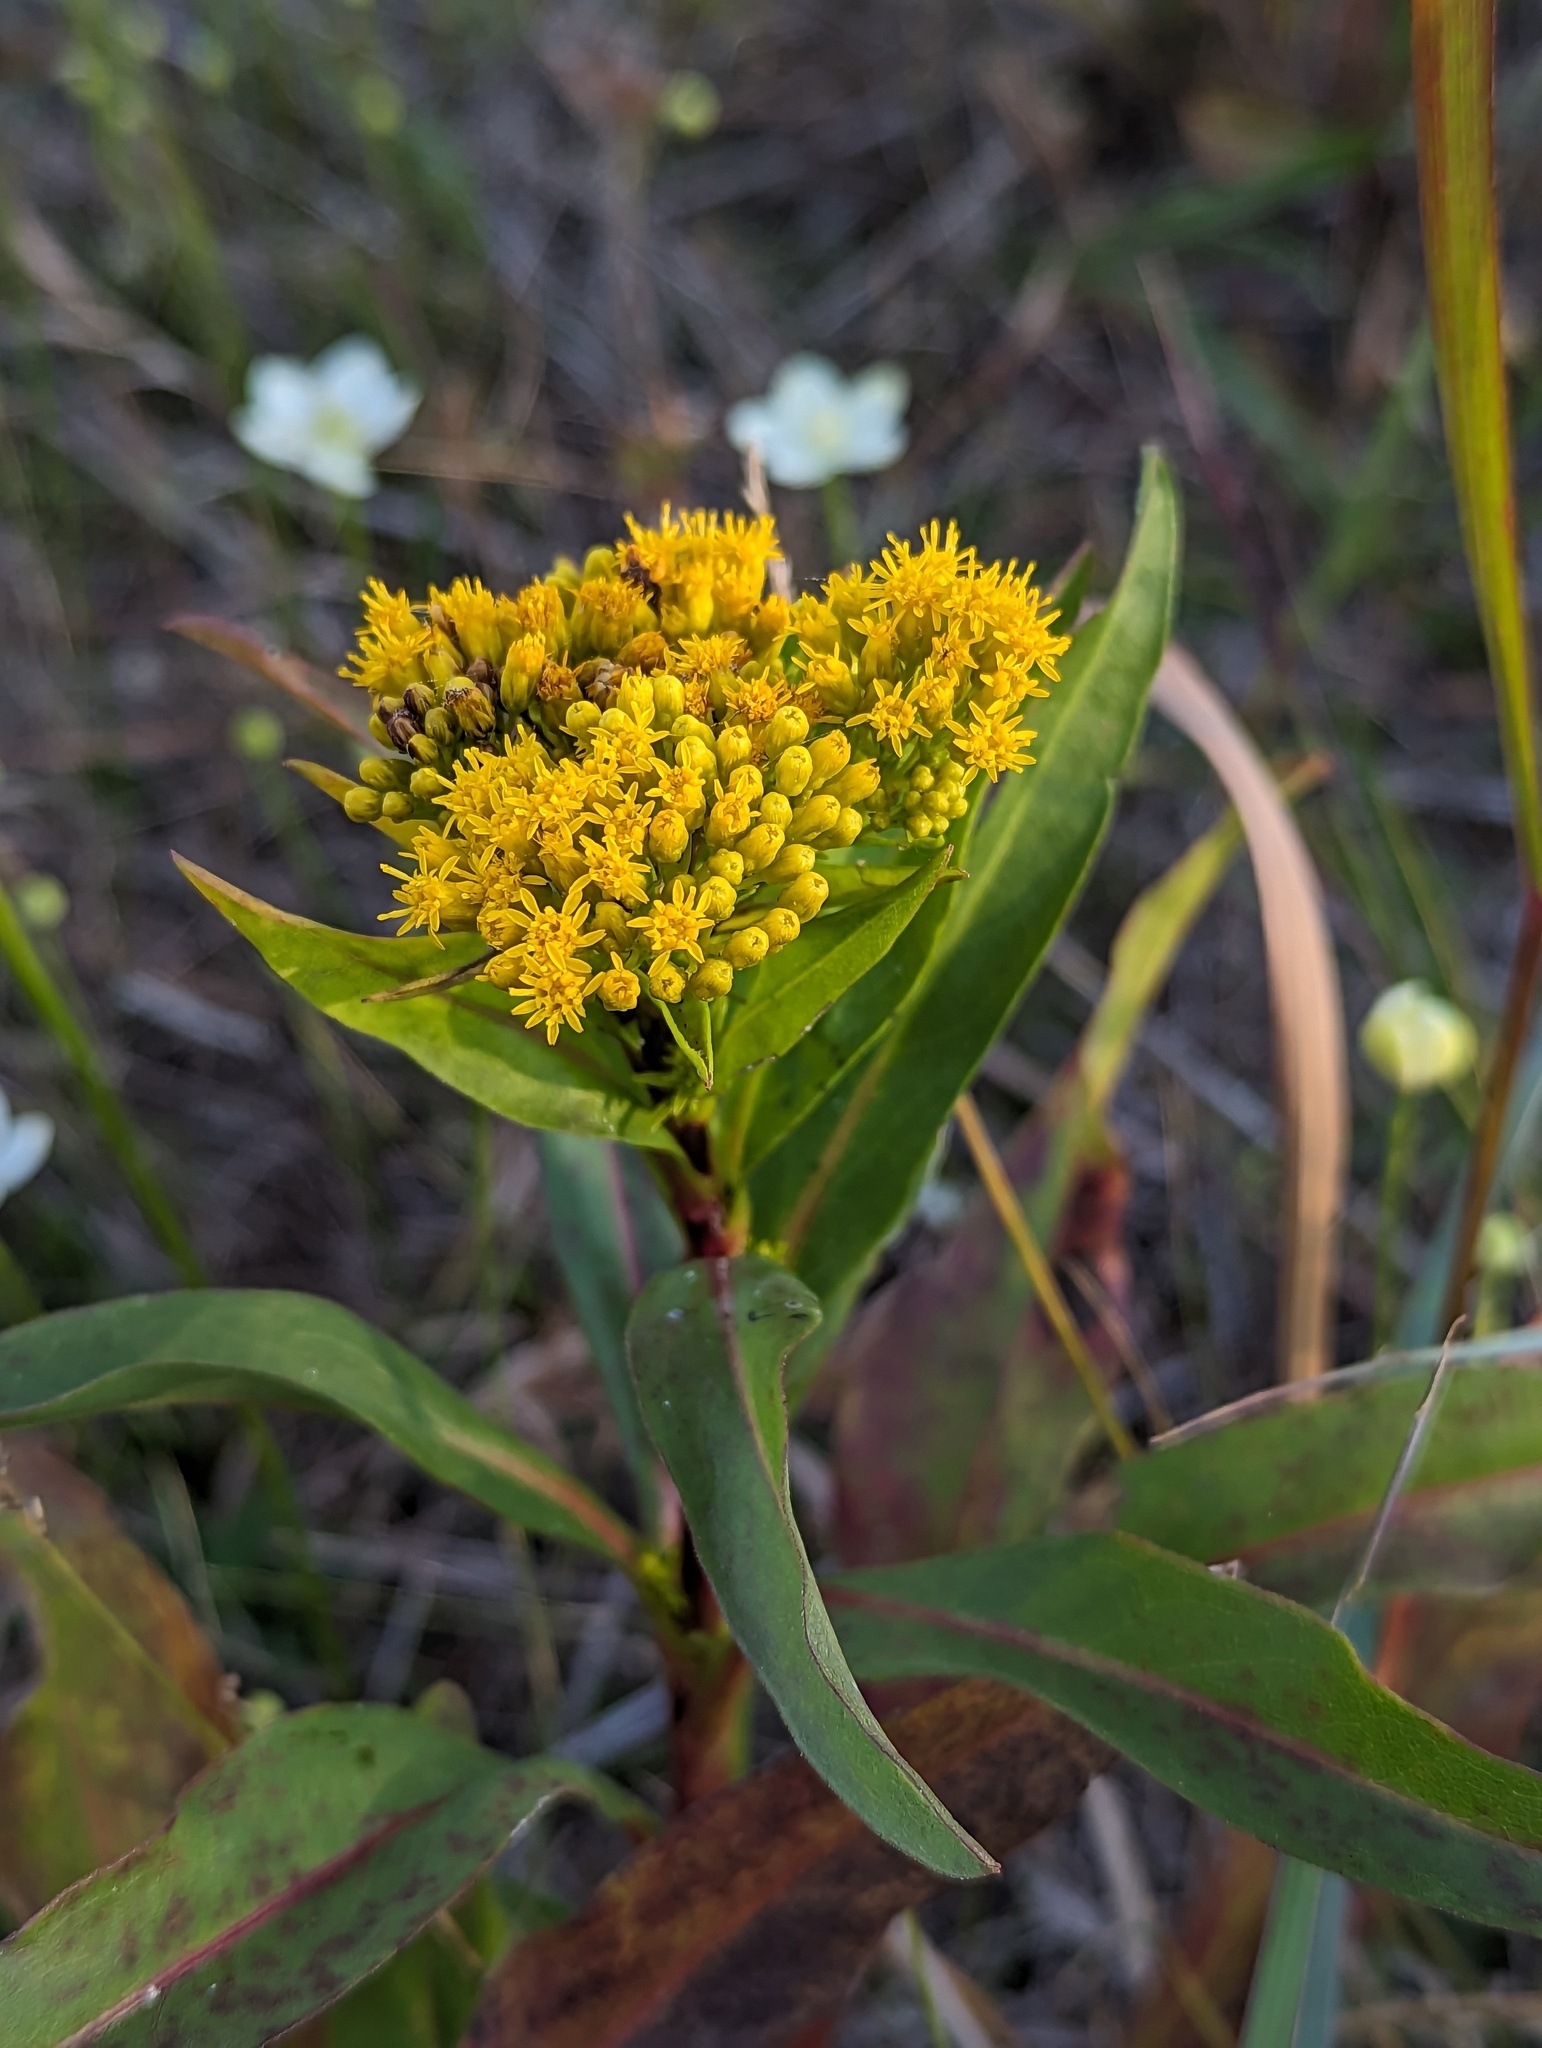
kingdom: Plantae
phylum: Tracheophyta
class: Magnoliopsida
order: Asterales
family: Asteraceae
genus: Solidago
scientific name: Solidago ohioensis
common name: Ohio goldenrod
